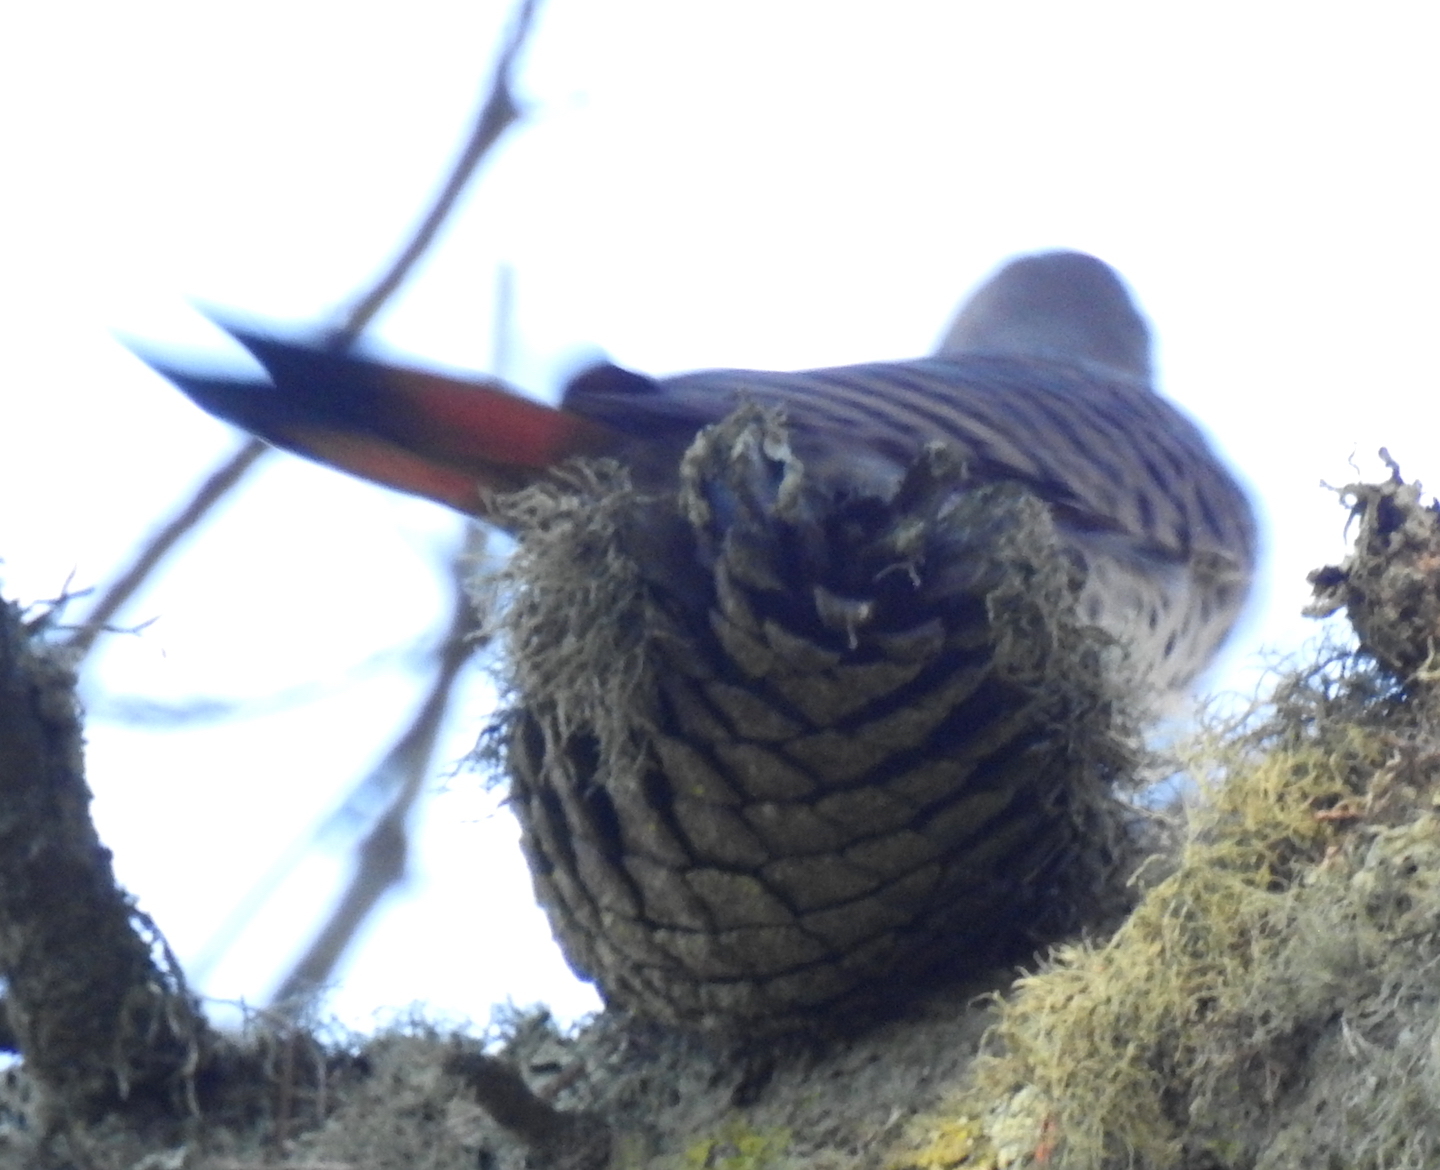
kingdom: Animalia
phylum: Chordata
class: Aves
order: Piciformes
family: Picidae
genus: Colaptes
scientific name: Colaptes auratus
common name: Northern flicker
